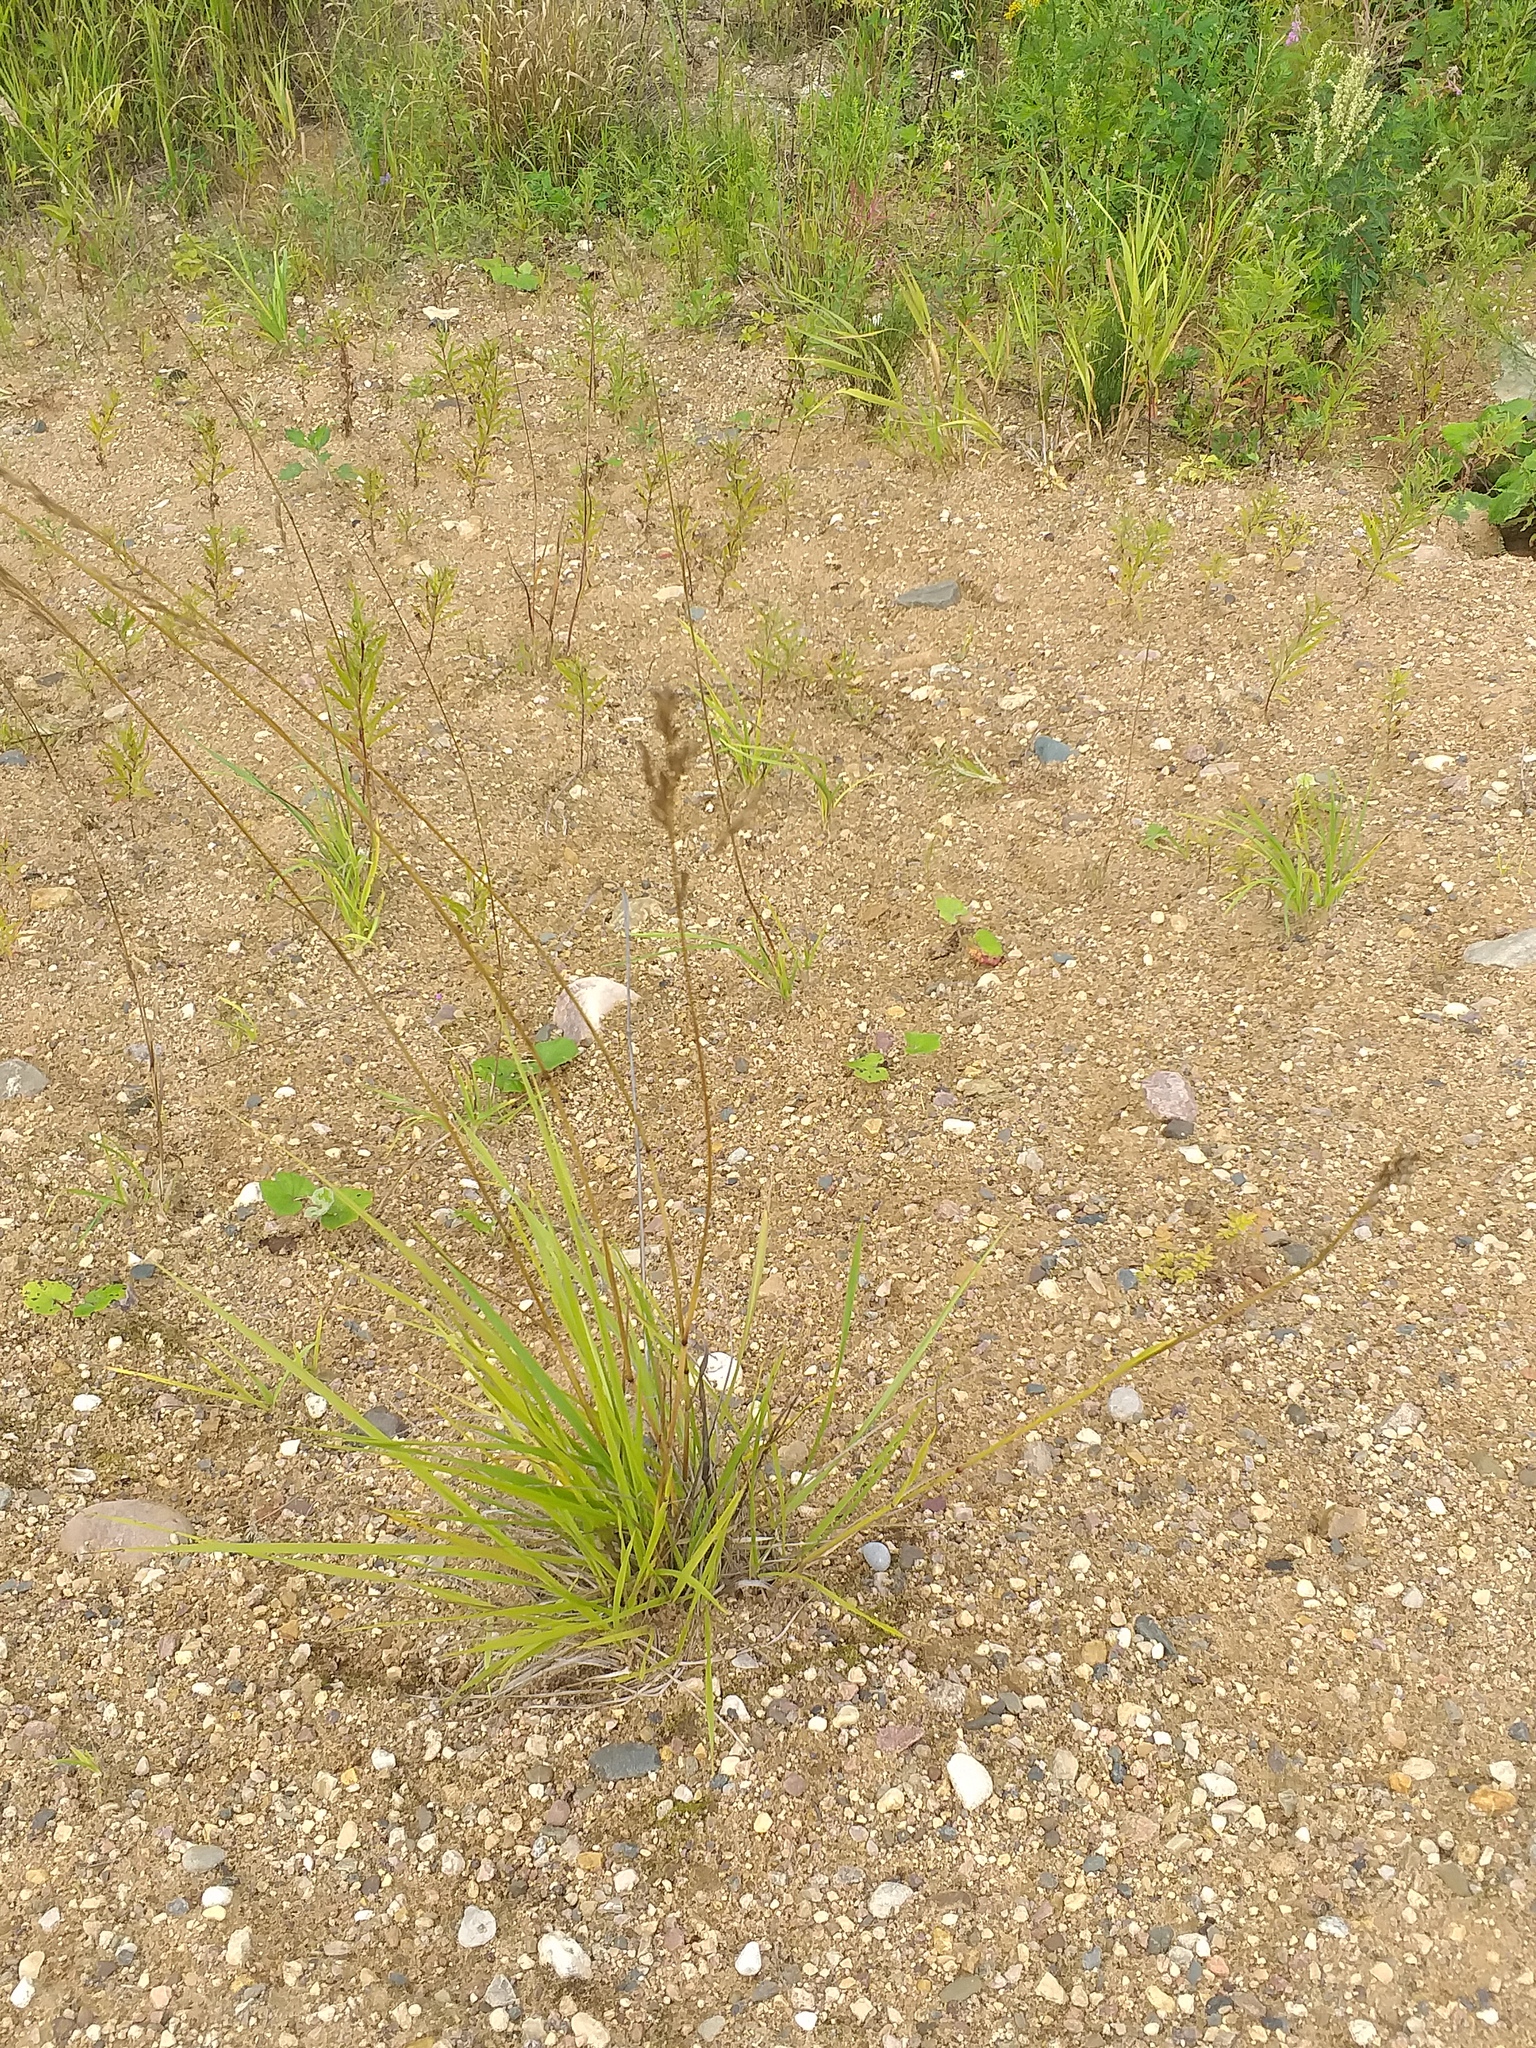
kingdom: Plantae
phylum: Tracheophyta
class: Liliopsida
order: Poales
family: Poaceae
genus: Lolium
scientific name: Lolium pratense
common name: Dover grass
